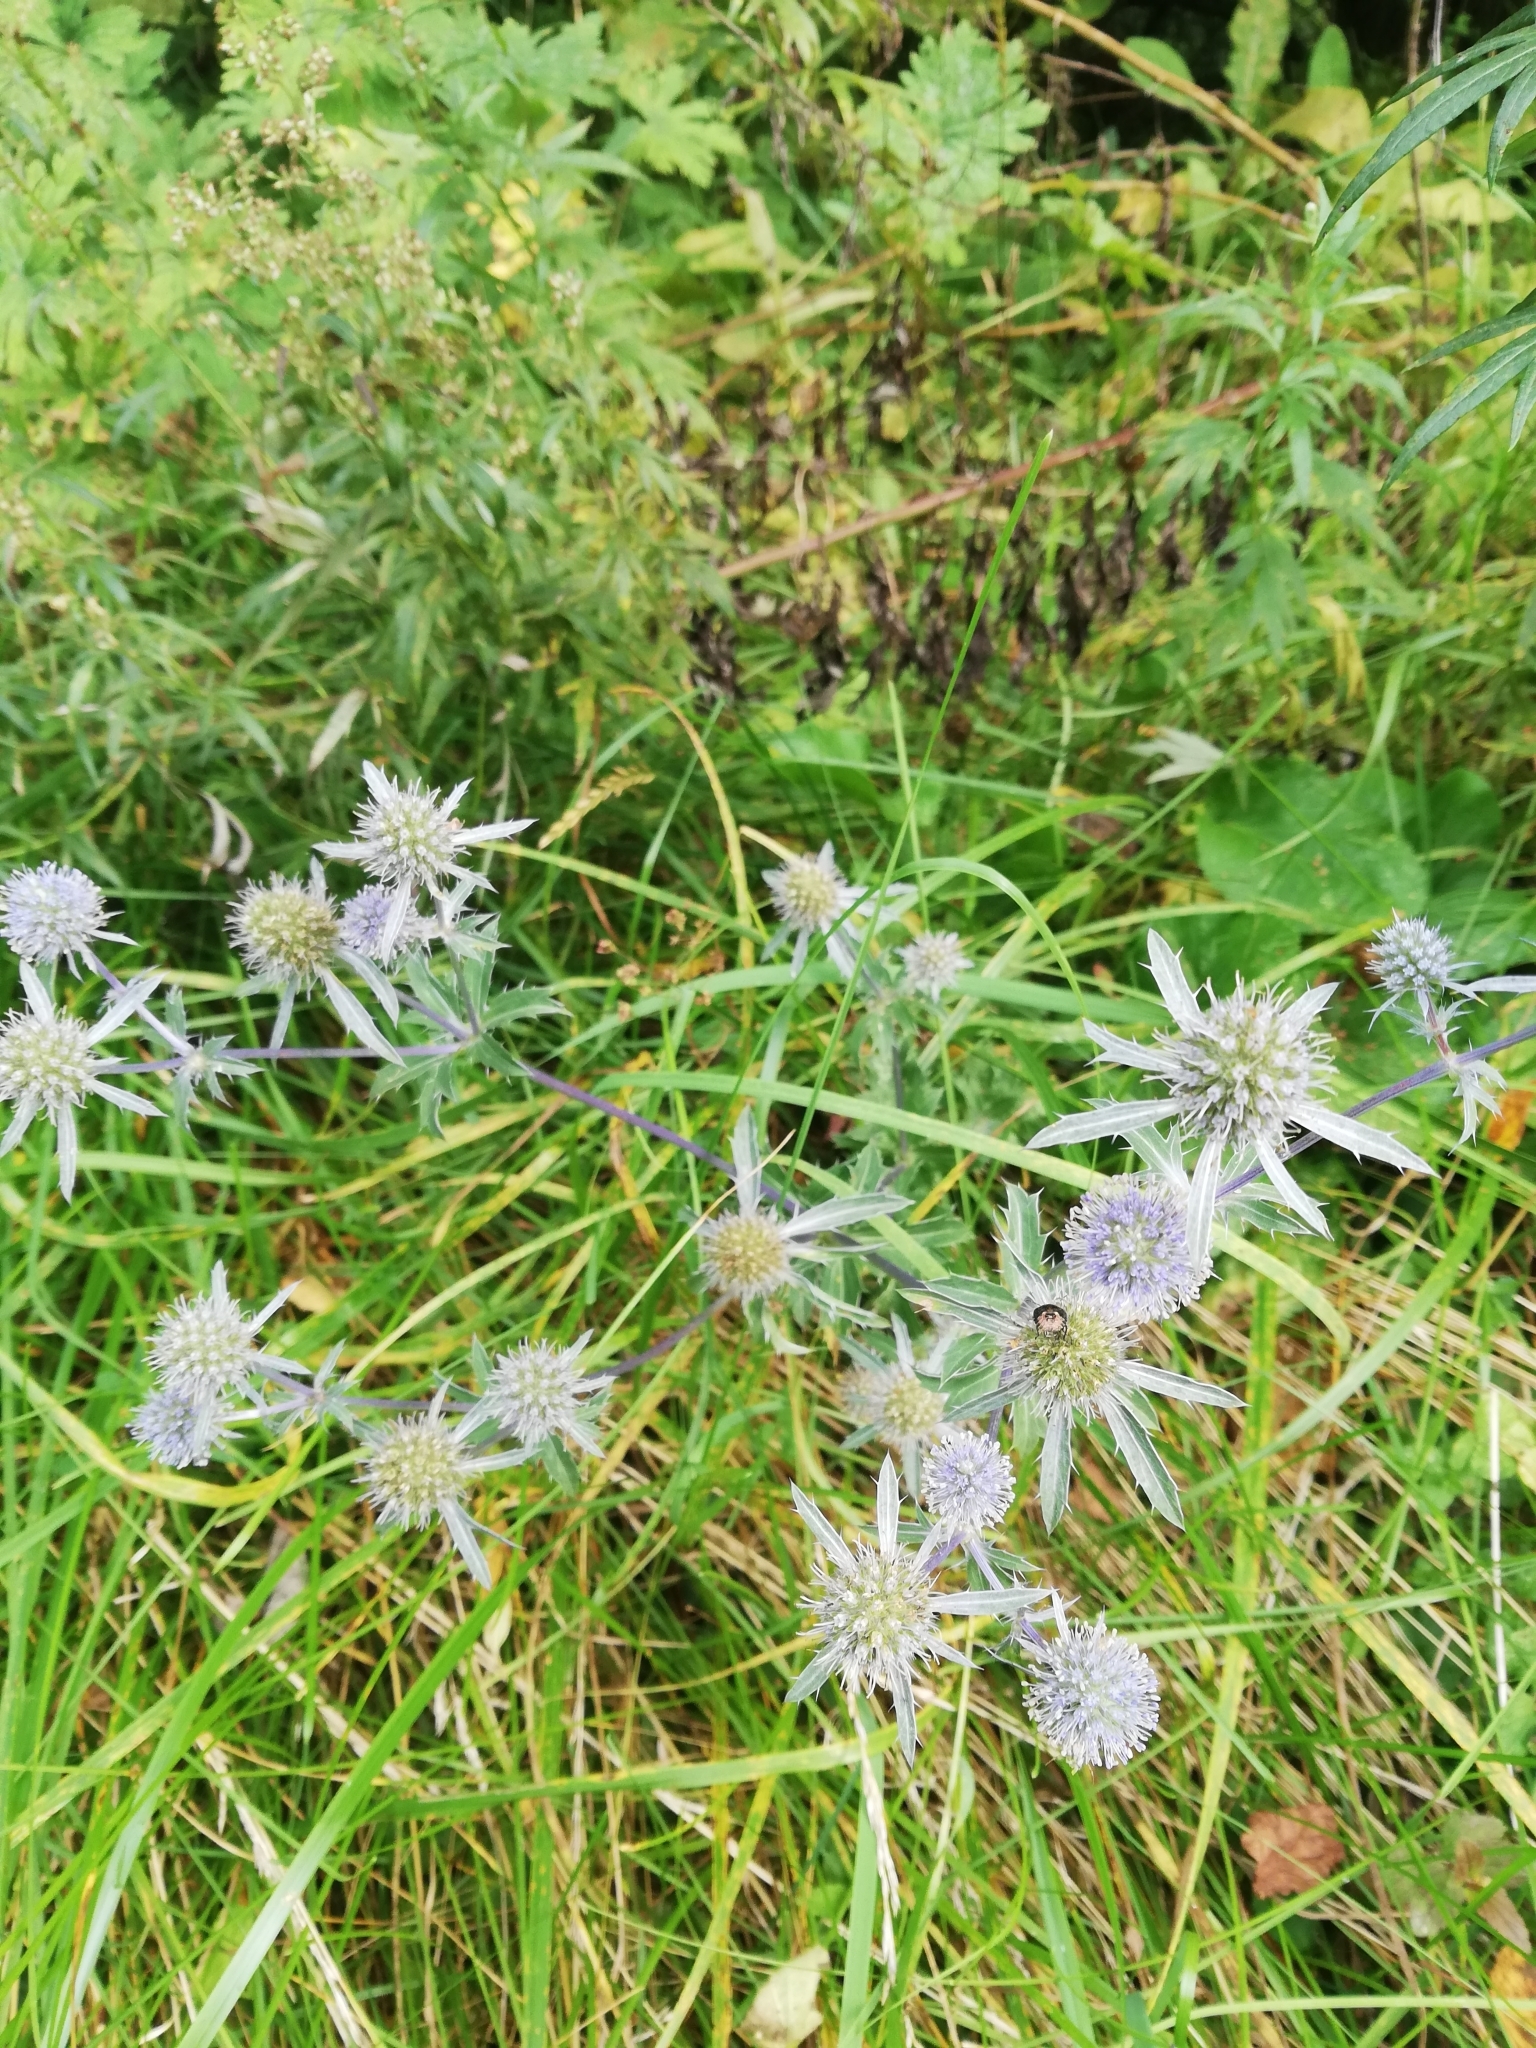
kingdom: Plantae
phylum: Tracheophyta
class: Magnoliopsida
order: Apiales
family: Apiaceae
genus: Eryngium
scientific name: Eryngium planum
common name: Blue eryngo
